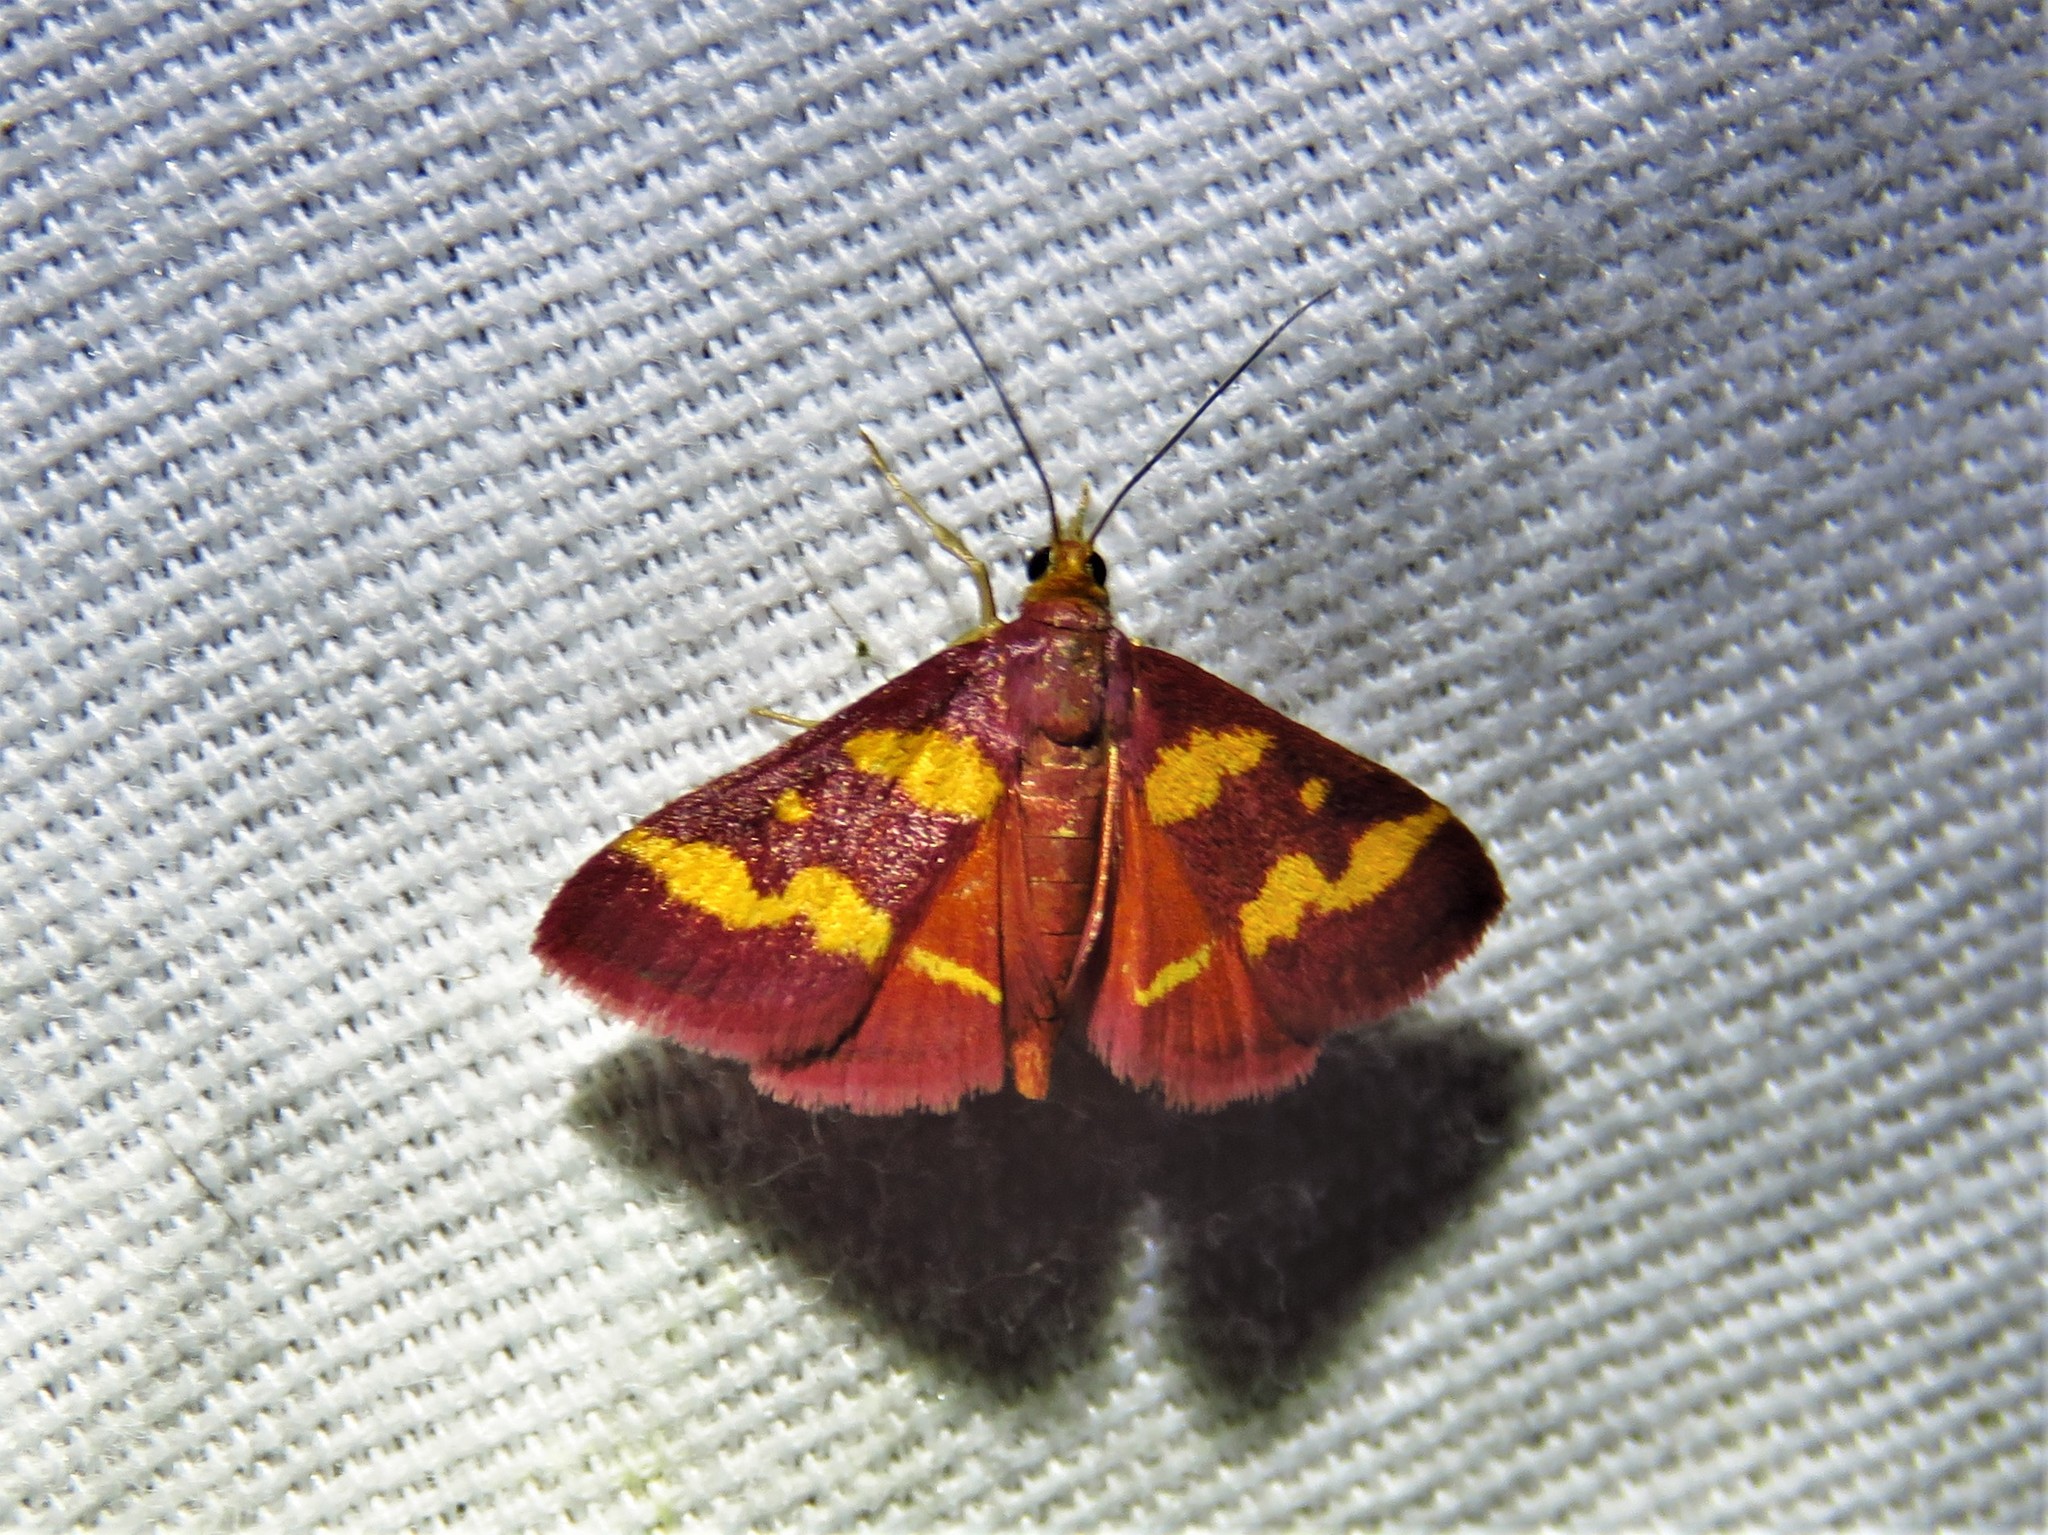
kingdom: Animalia
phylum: Arthropoda
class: Insecta
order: Lepidoptera
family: Crambidae
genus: Pyrausta
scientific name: Pyrausta tyralis
